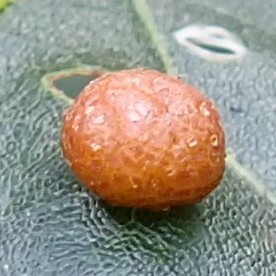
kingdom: Animalia
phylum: Arthropoda
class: Insecta
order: Diptera
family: Cecidomyiidae
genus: Polystepha
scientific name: Polystepha pilulae
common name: Oak leaf gall midge
